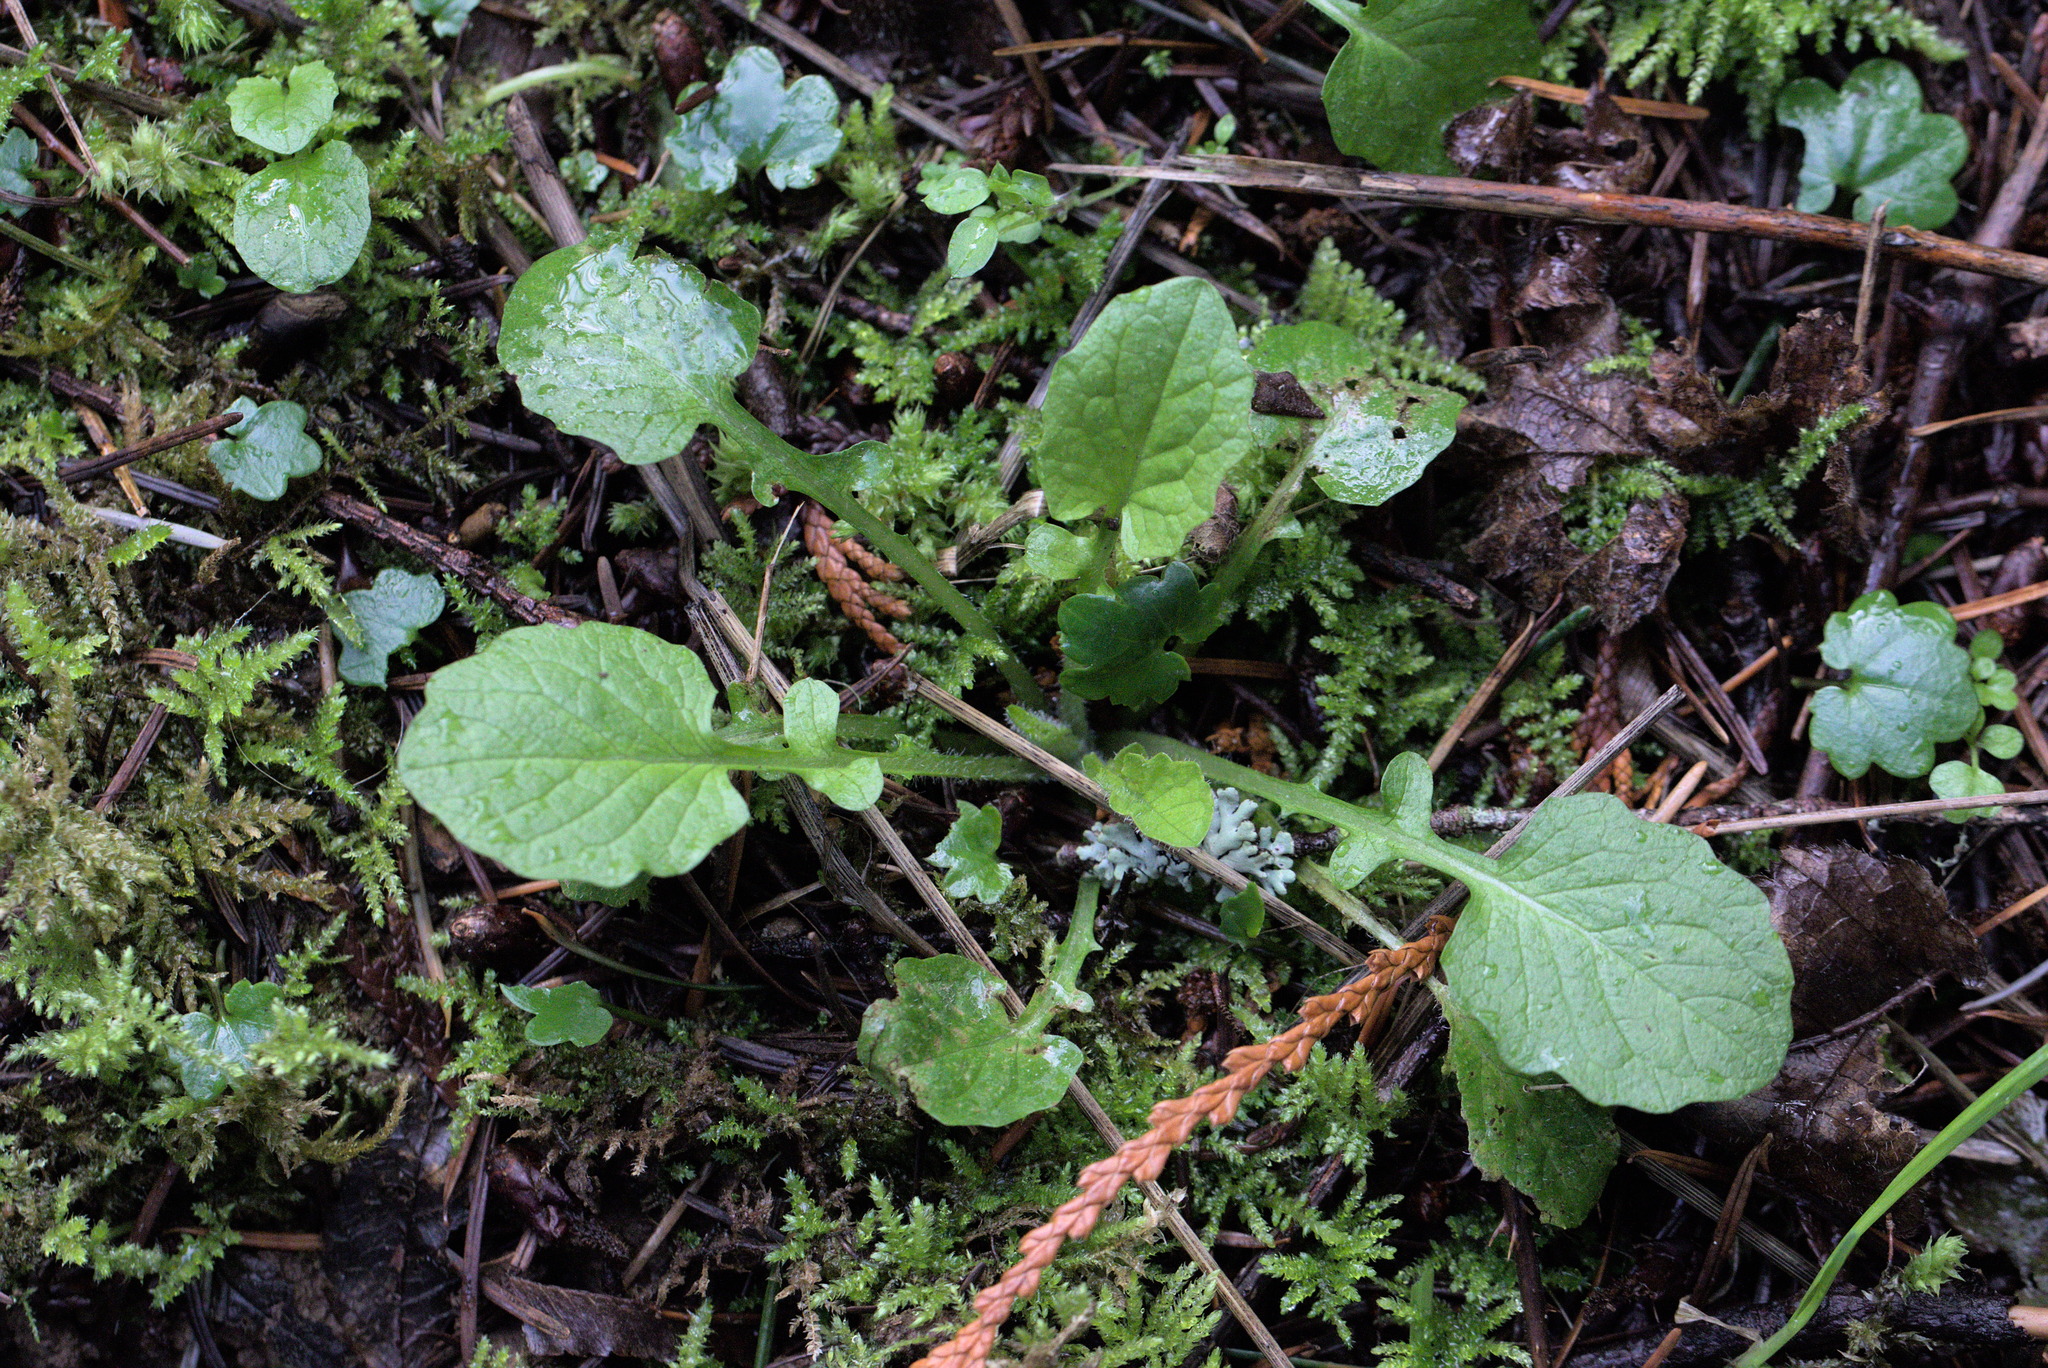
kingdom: Plantae
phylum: Tracheophyta
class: Magnoliopsida
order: Asterales
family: Asteraceae
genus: Lapsana
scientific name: Lapsana communis
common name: Nipplewort
